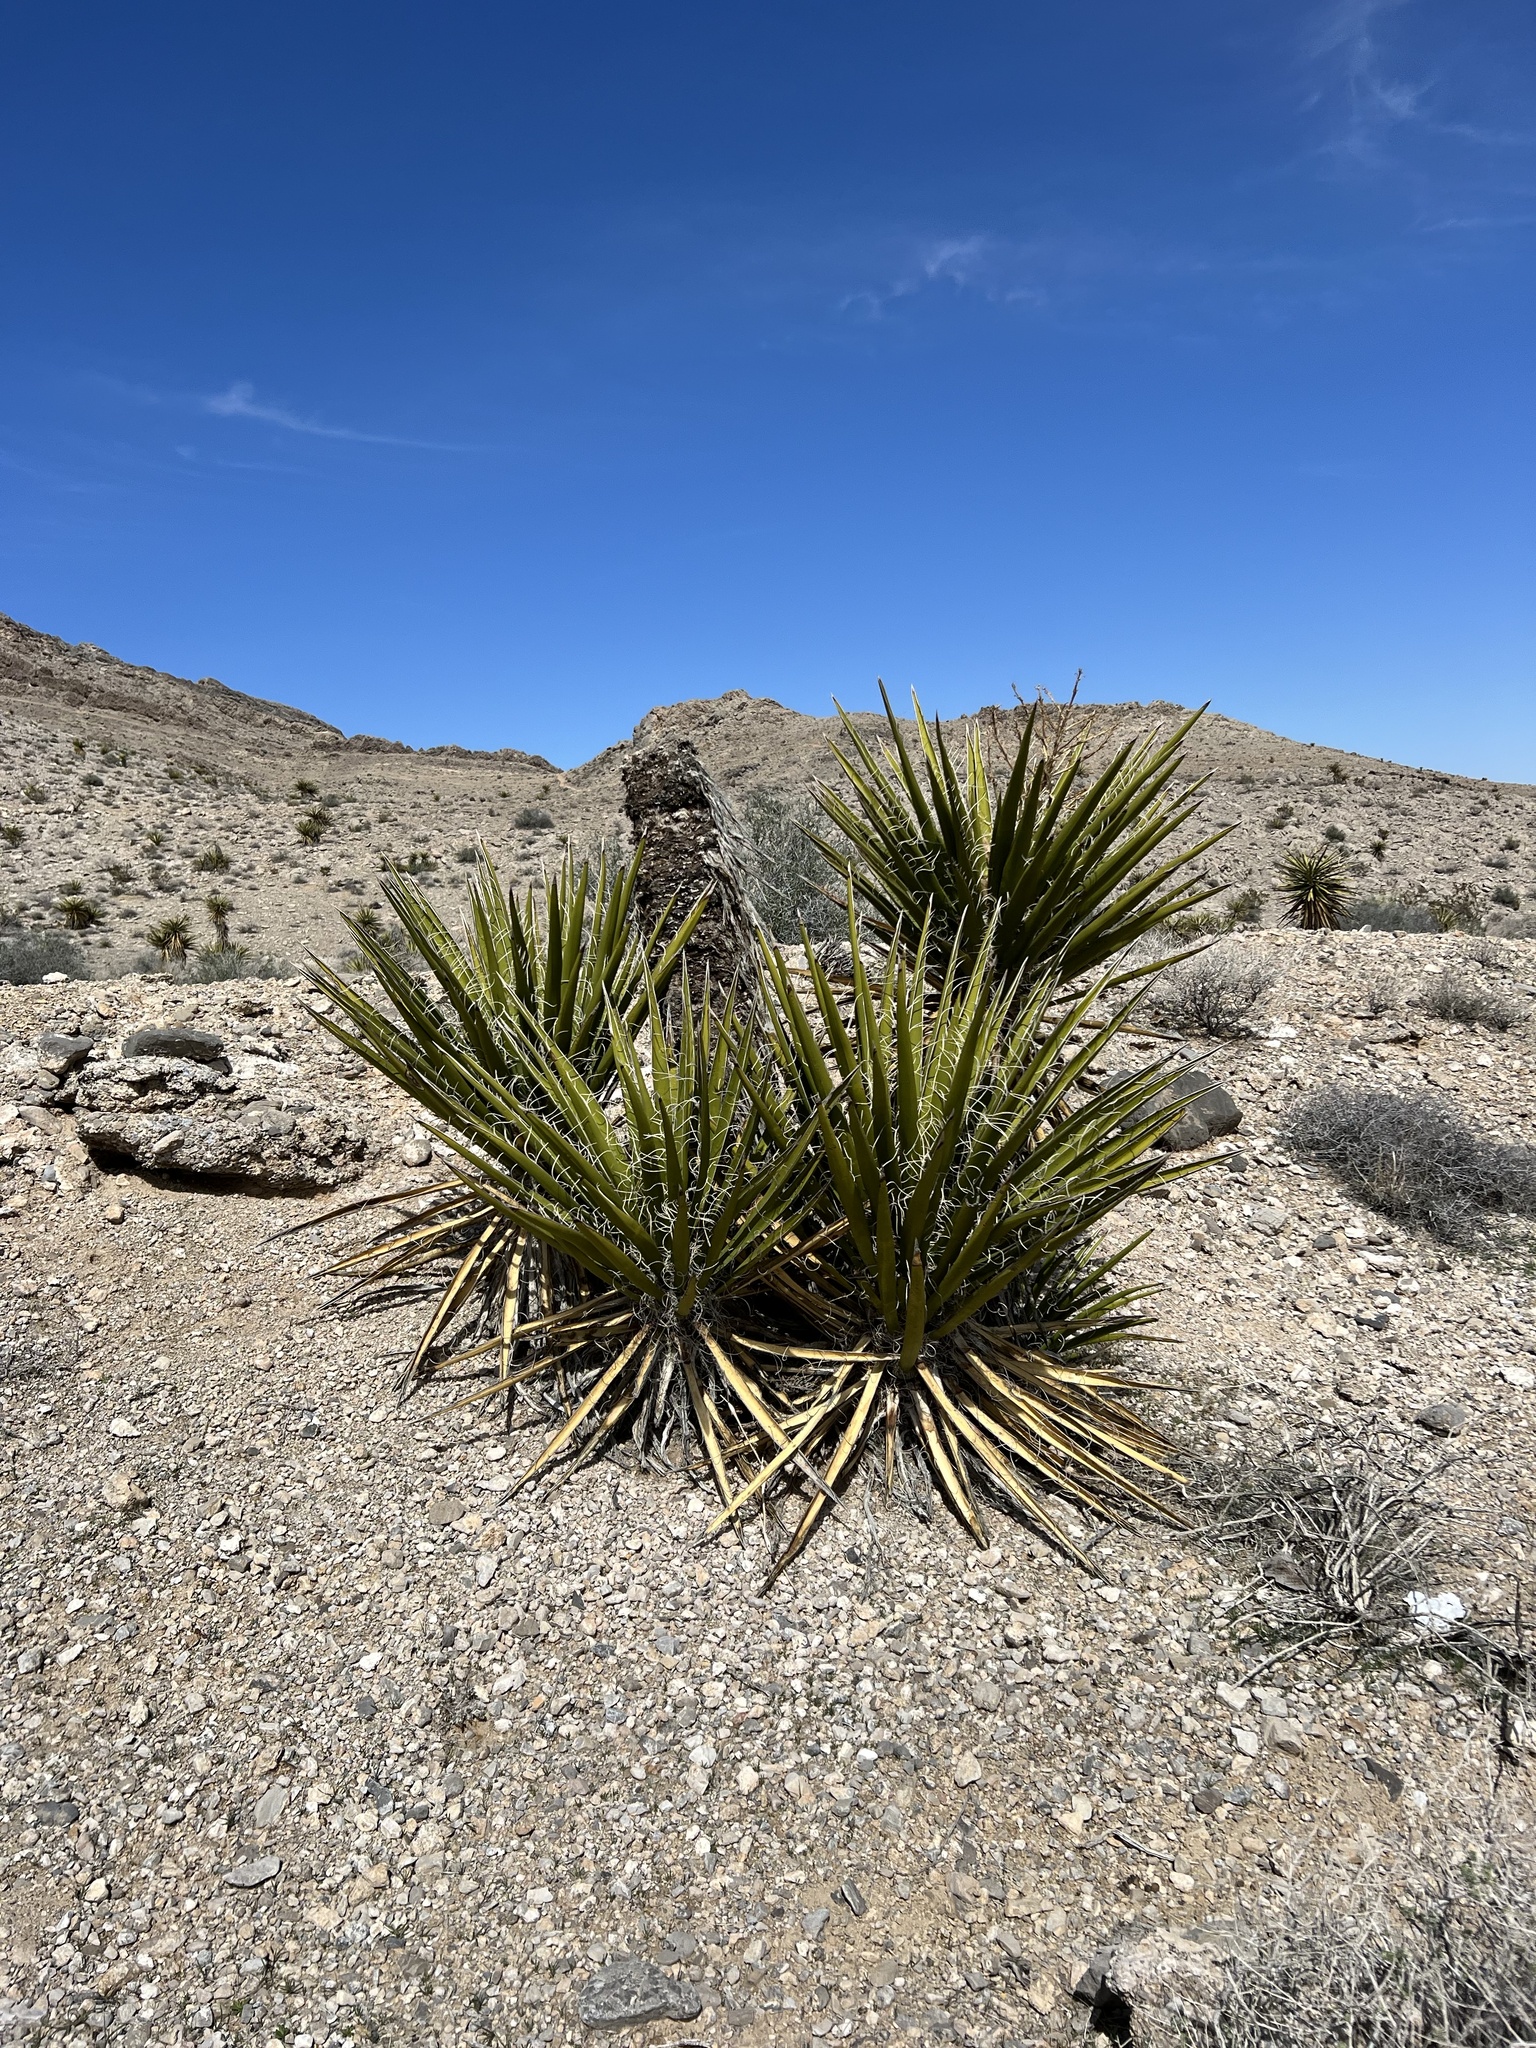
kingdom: Plantae
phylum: Tracheophyta
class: Liliopsida
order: Asparagales
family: Asparagaceae
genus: Yucca
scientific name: Yucca schidigera
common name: Mojave yucca
